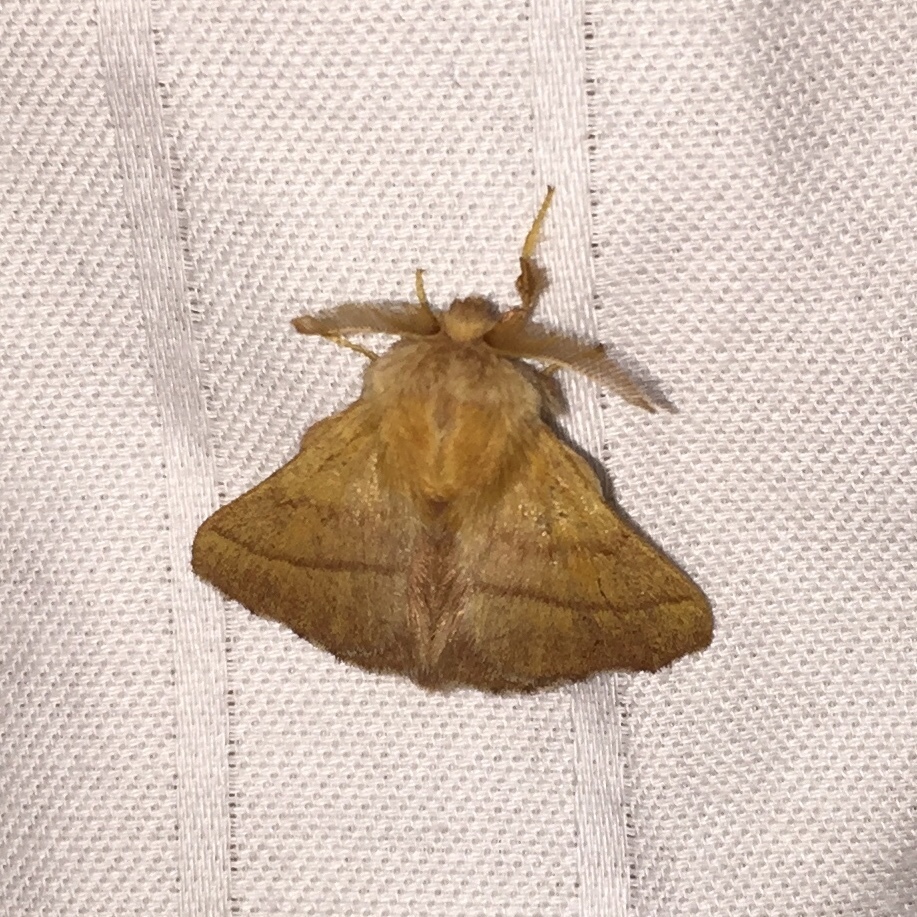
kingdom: Animalia
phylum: Arthropoda
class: Insecta
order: Lepidoptera
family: Lasiocampidae
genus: Malacosoma
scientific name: Malacosoma disstria
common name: Forest tent caterpillar
